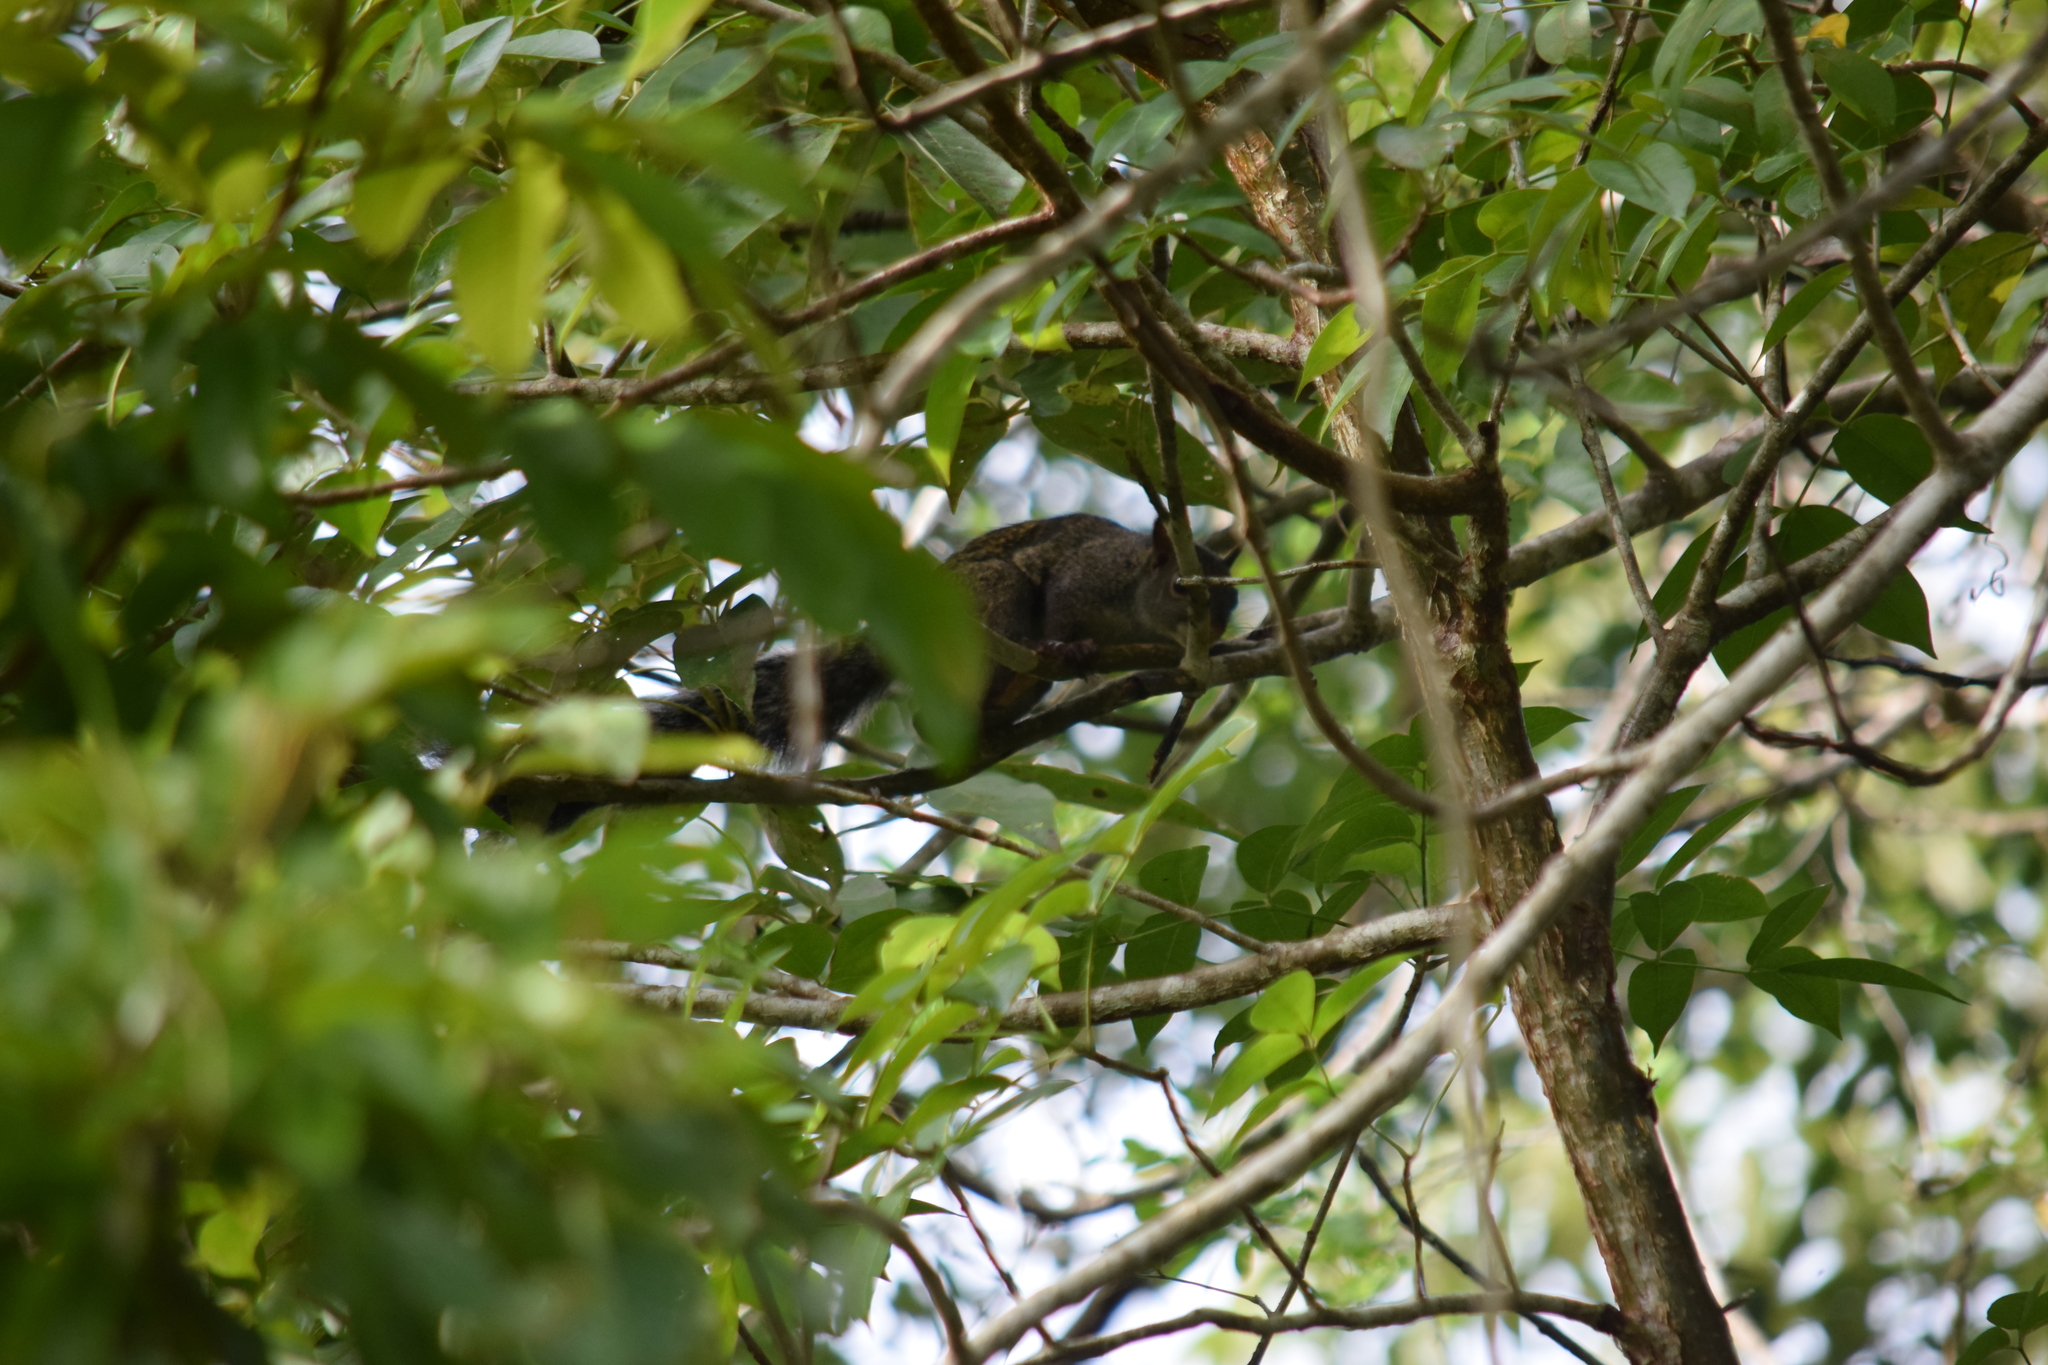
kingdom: Animalia
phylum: Chordata
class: Mammalia
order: Rodentia
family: Sciuridae
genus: Sciurus
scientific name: Sciurus yucatanensis
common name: Yucatan squirrel
